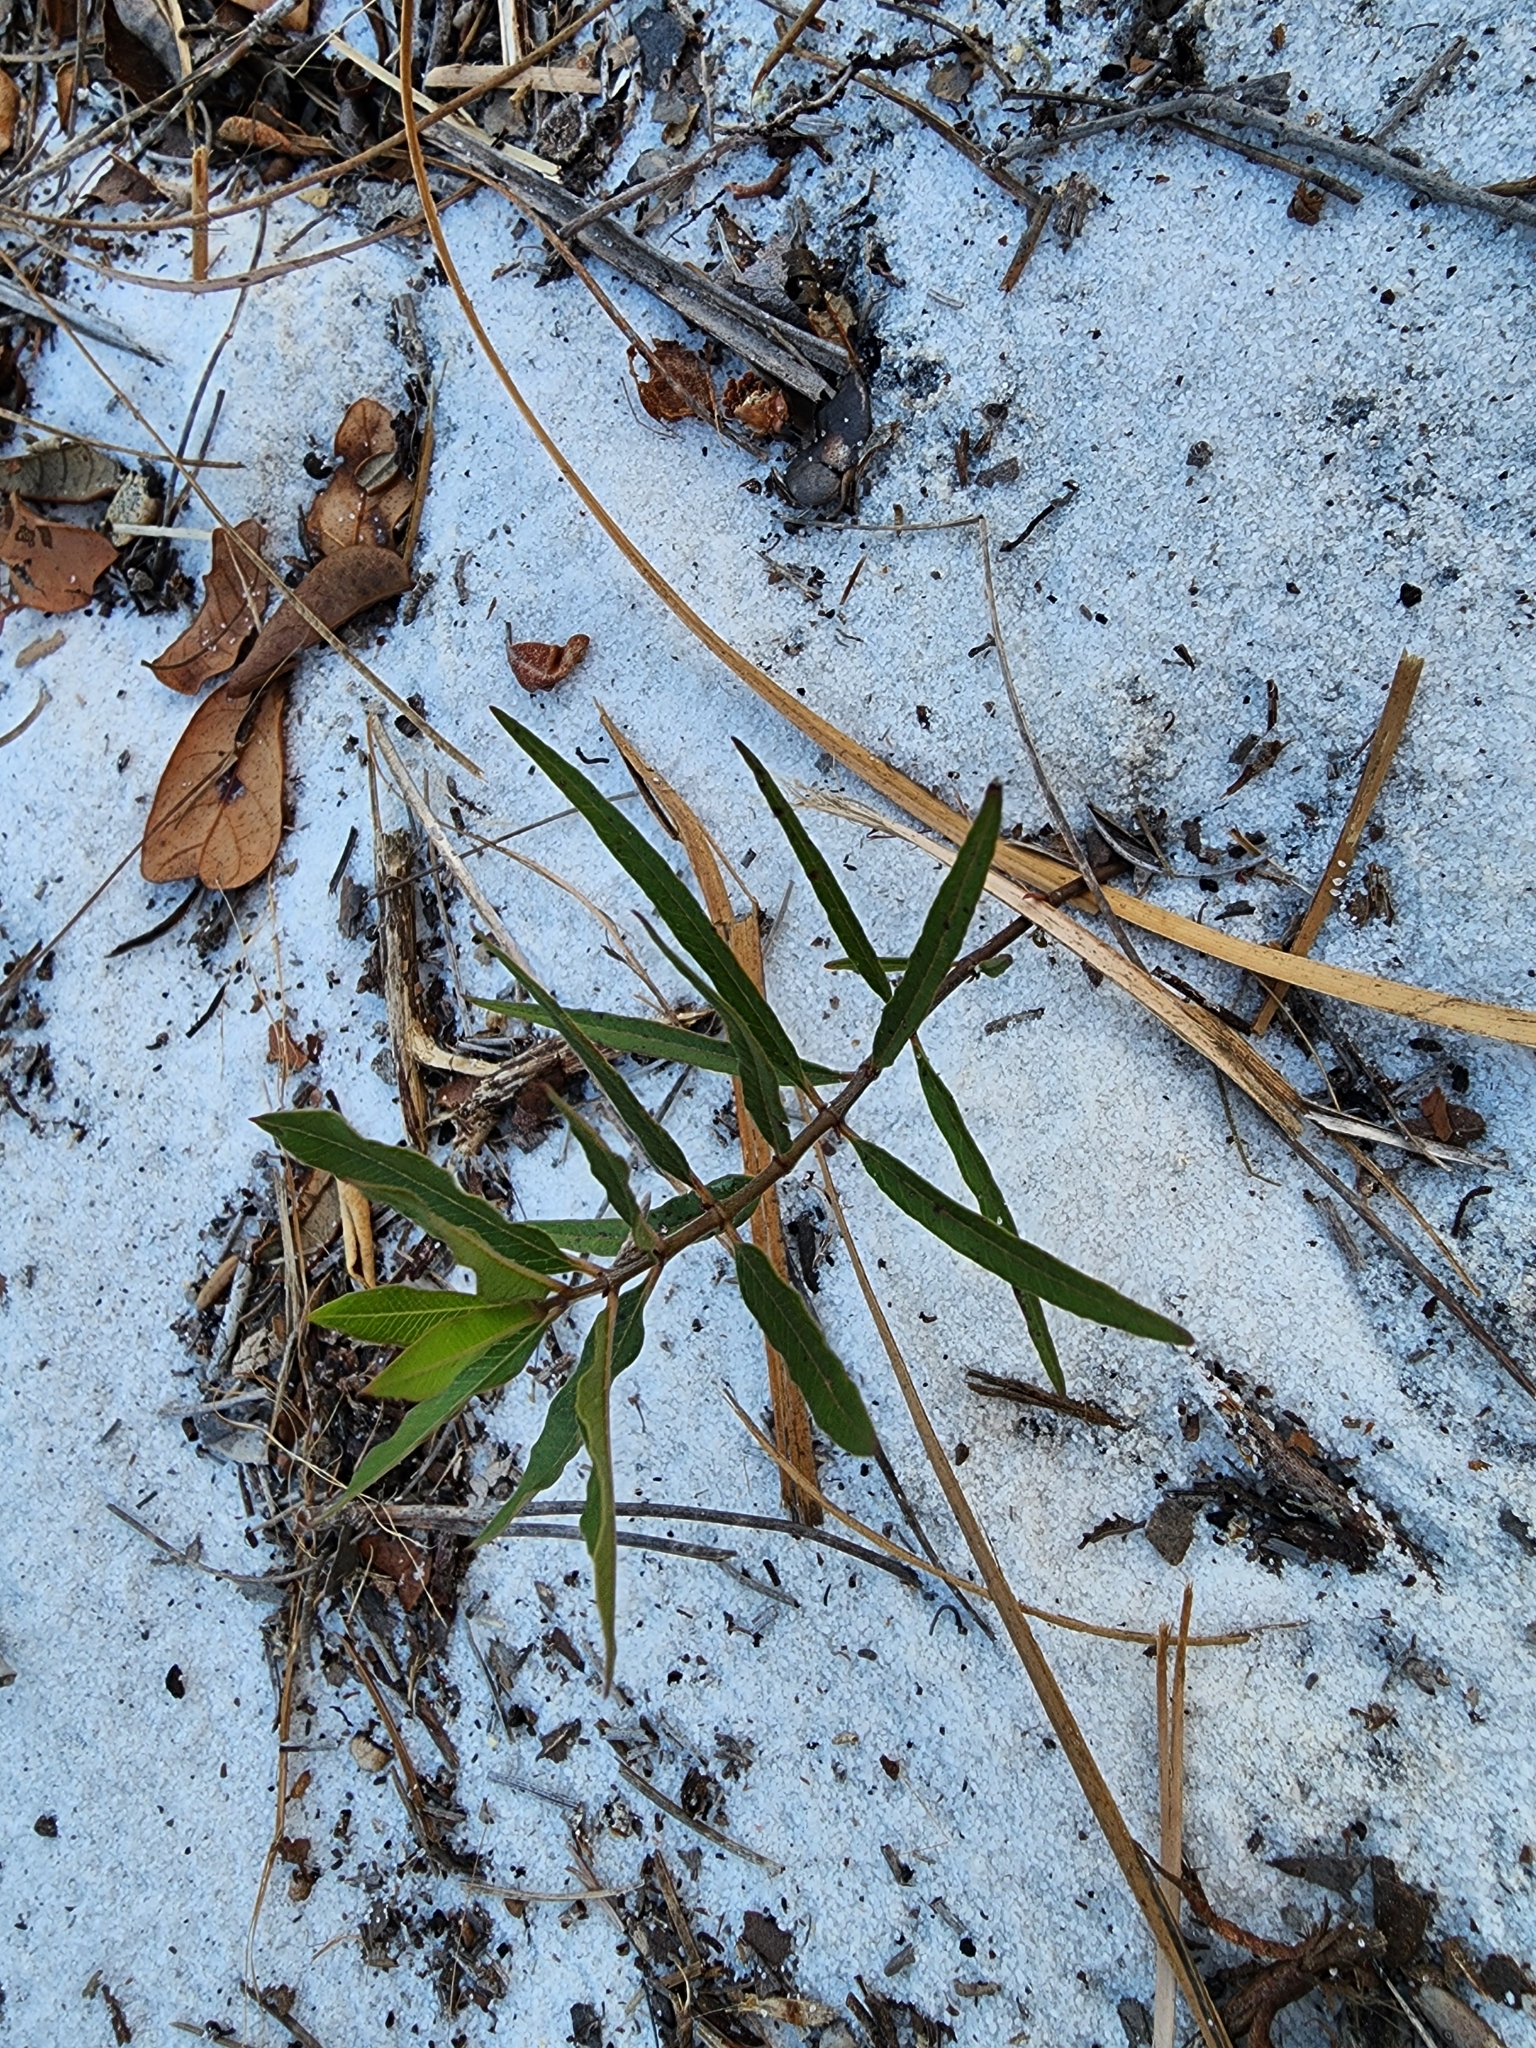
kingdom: Plantae
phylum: Tracheophyta
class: Magnoliopsida
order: Gentianales
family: Apocynaceae
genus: Asclepias
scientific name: Asclepias curtissii
